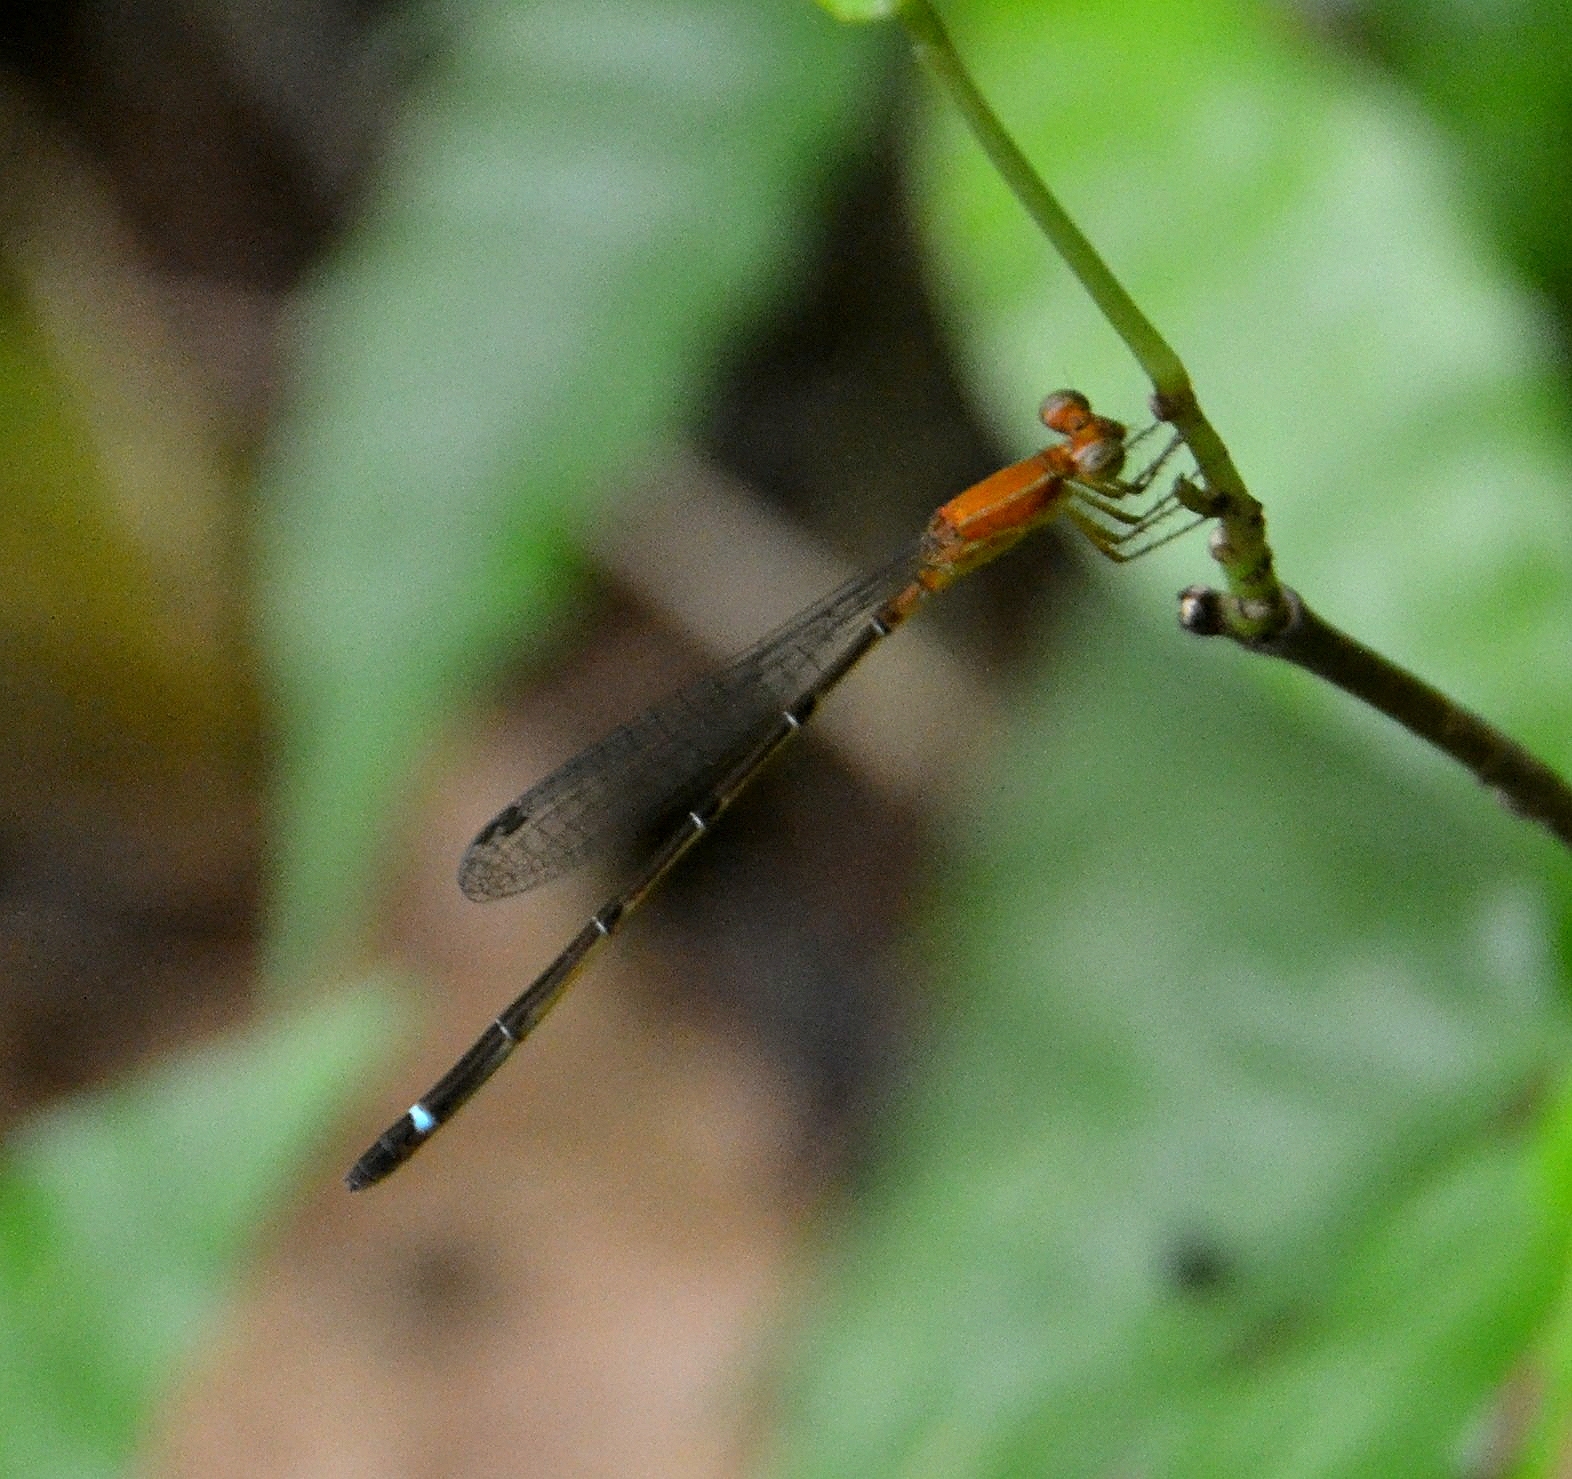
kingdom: Animalia
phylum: Arthropoda
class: Insecta
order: Odonata
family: Coenagrionidae
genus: Mortonagrion
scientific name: Mortonagrion varralli
